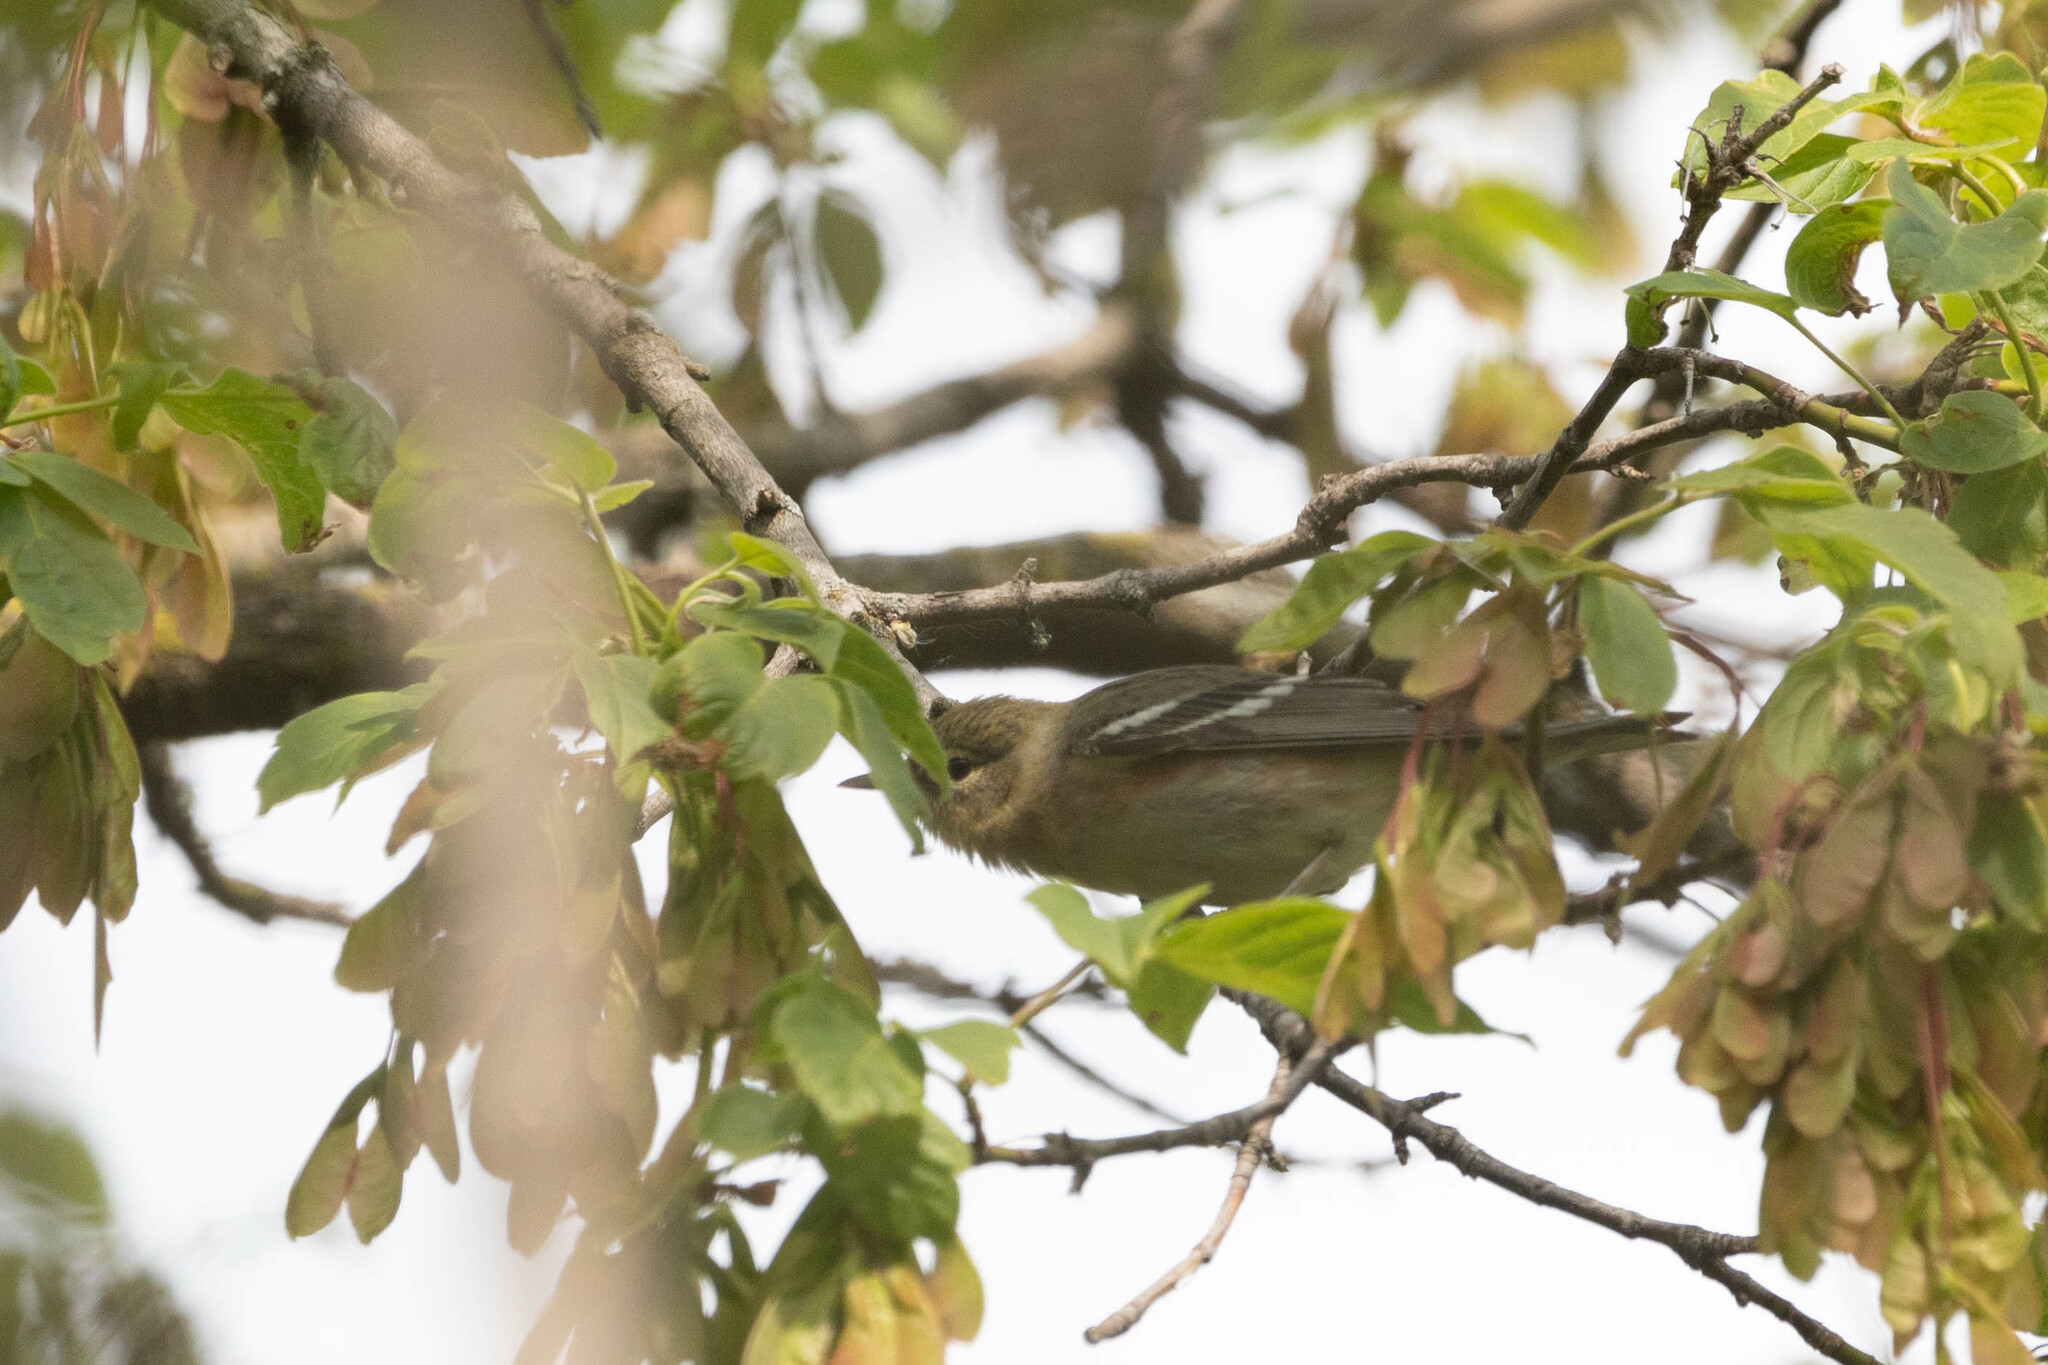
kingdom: Animalia
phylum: Chordata
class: Aves
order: Passeriformes
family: Parulidae
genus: Setophaga
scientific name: Setophaga castanea
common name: Bay-breasted warbler
